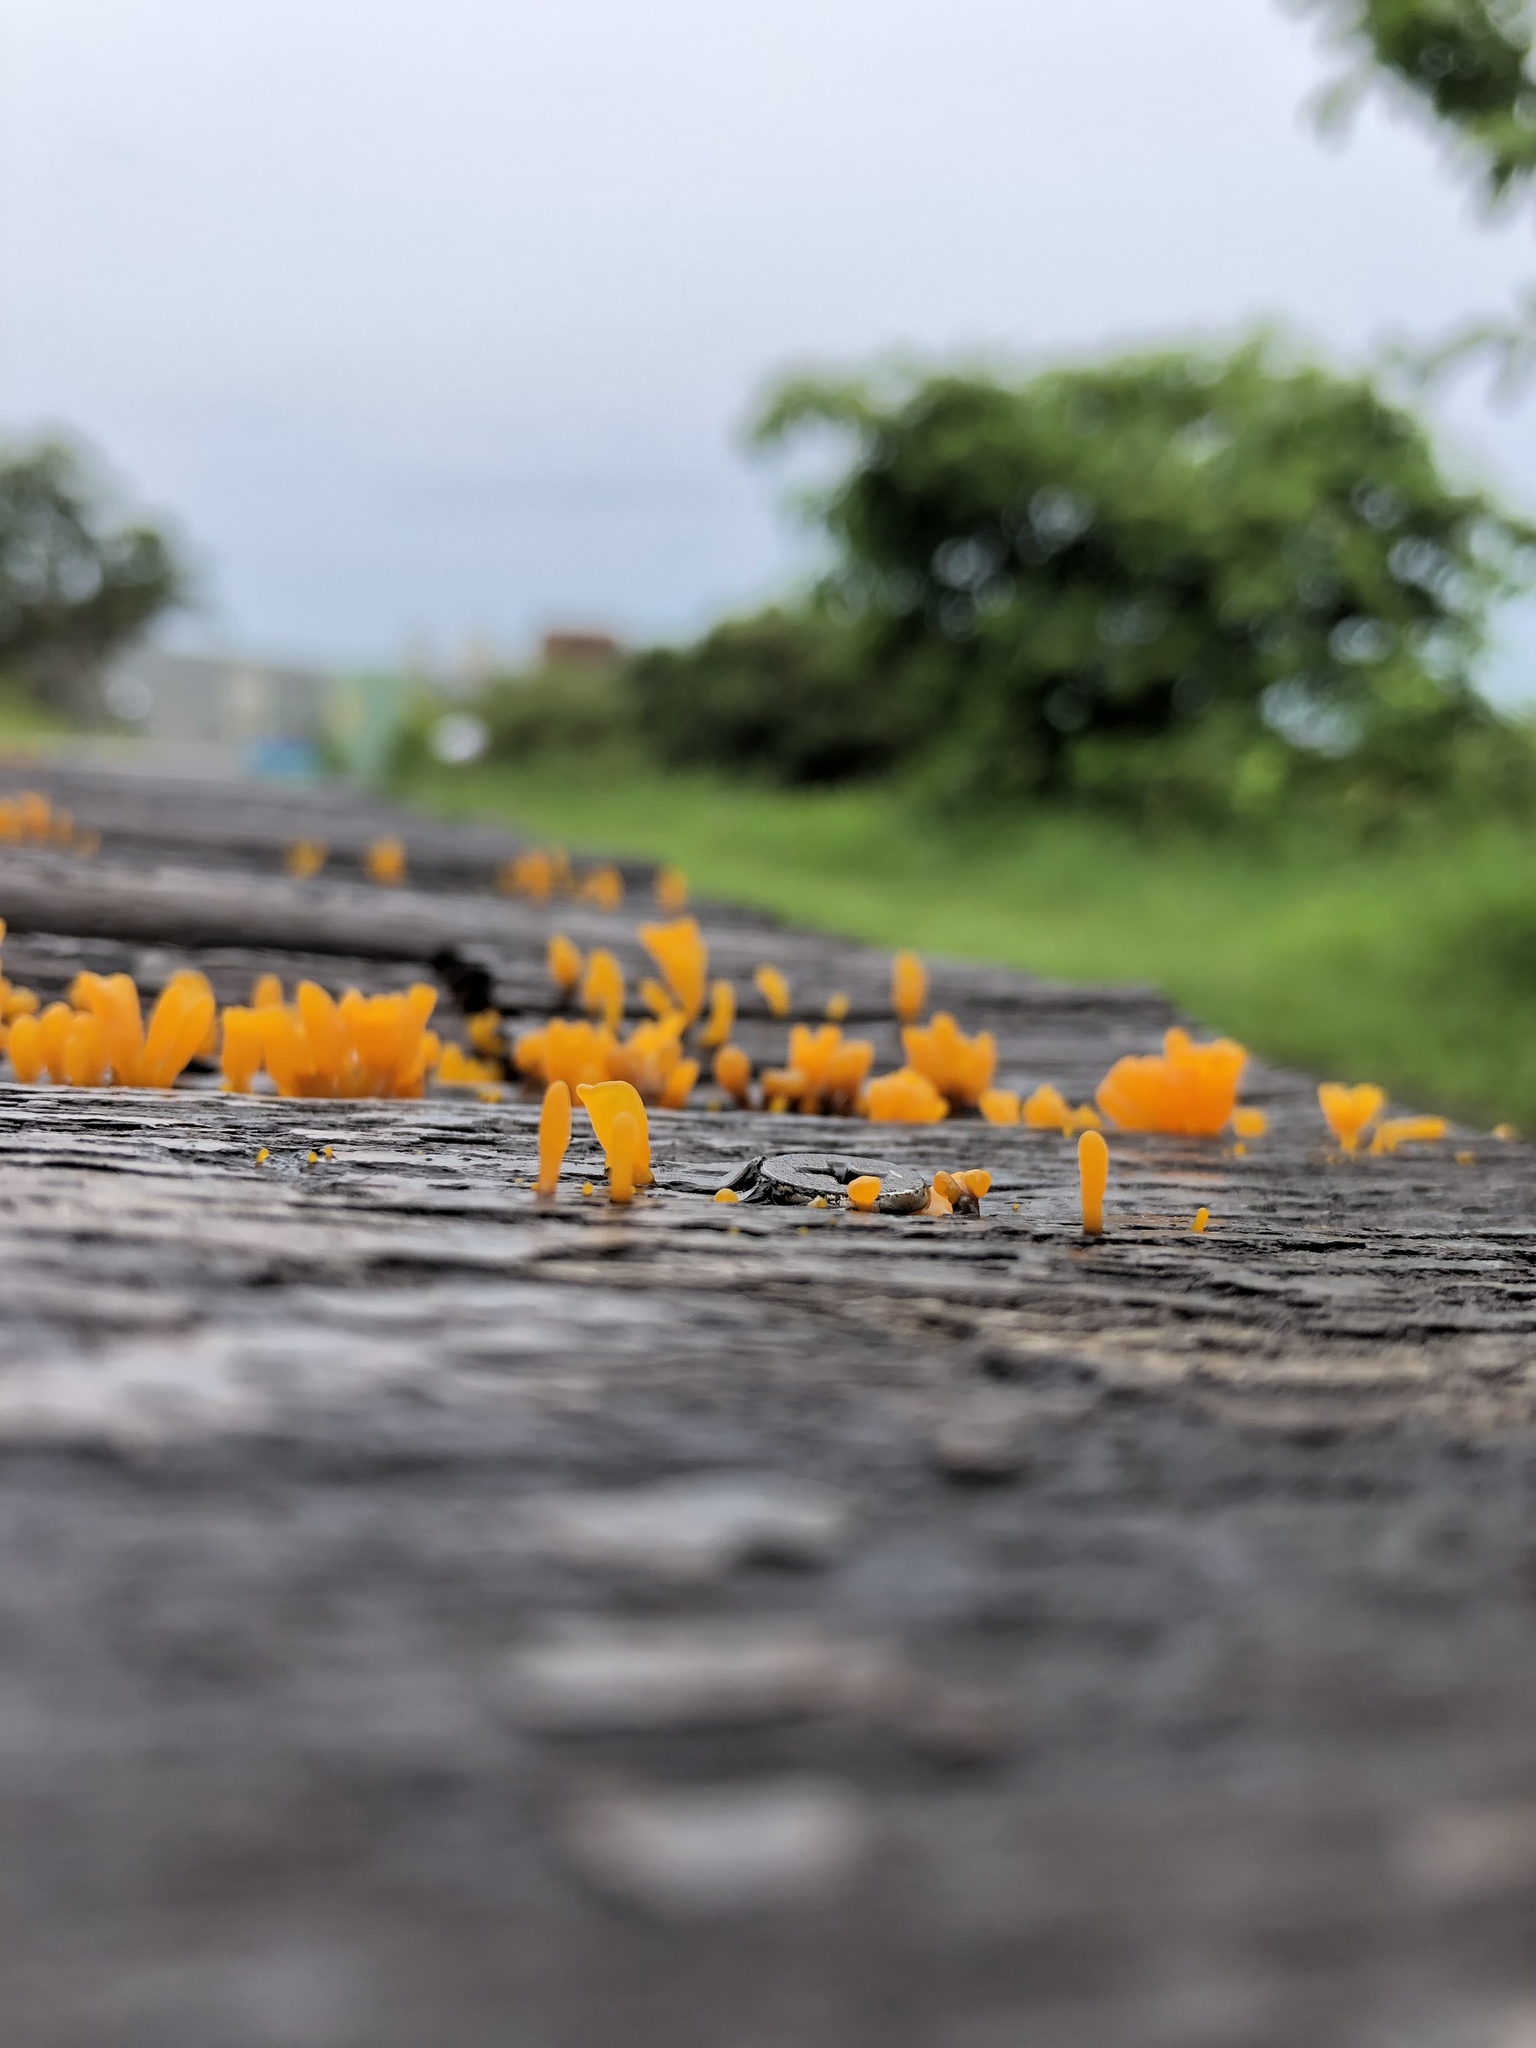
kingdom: Fungi
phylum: Basidiomycota
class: Dacrymycetes
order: Dacrymycetales
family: Dacrymycetaceae
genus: Dacrymyces
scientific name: Dacrymyces spathularius
